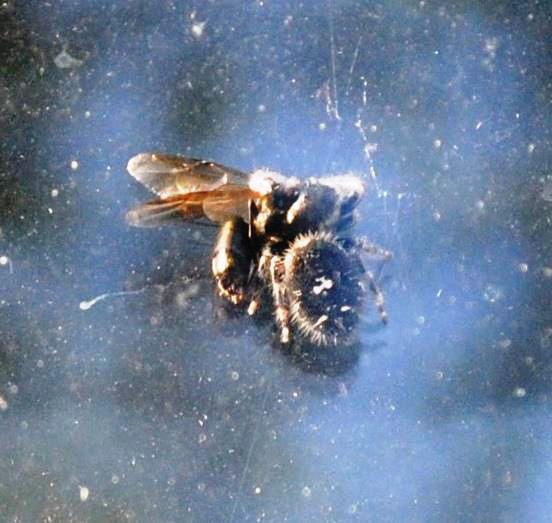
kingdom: Animalia
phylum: Arthropoda
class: Arachnida
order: Araneae
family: Salticidae
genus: Phidippus
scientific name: Phidippus audax
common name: Bold jumper
